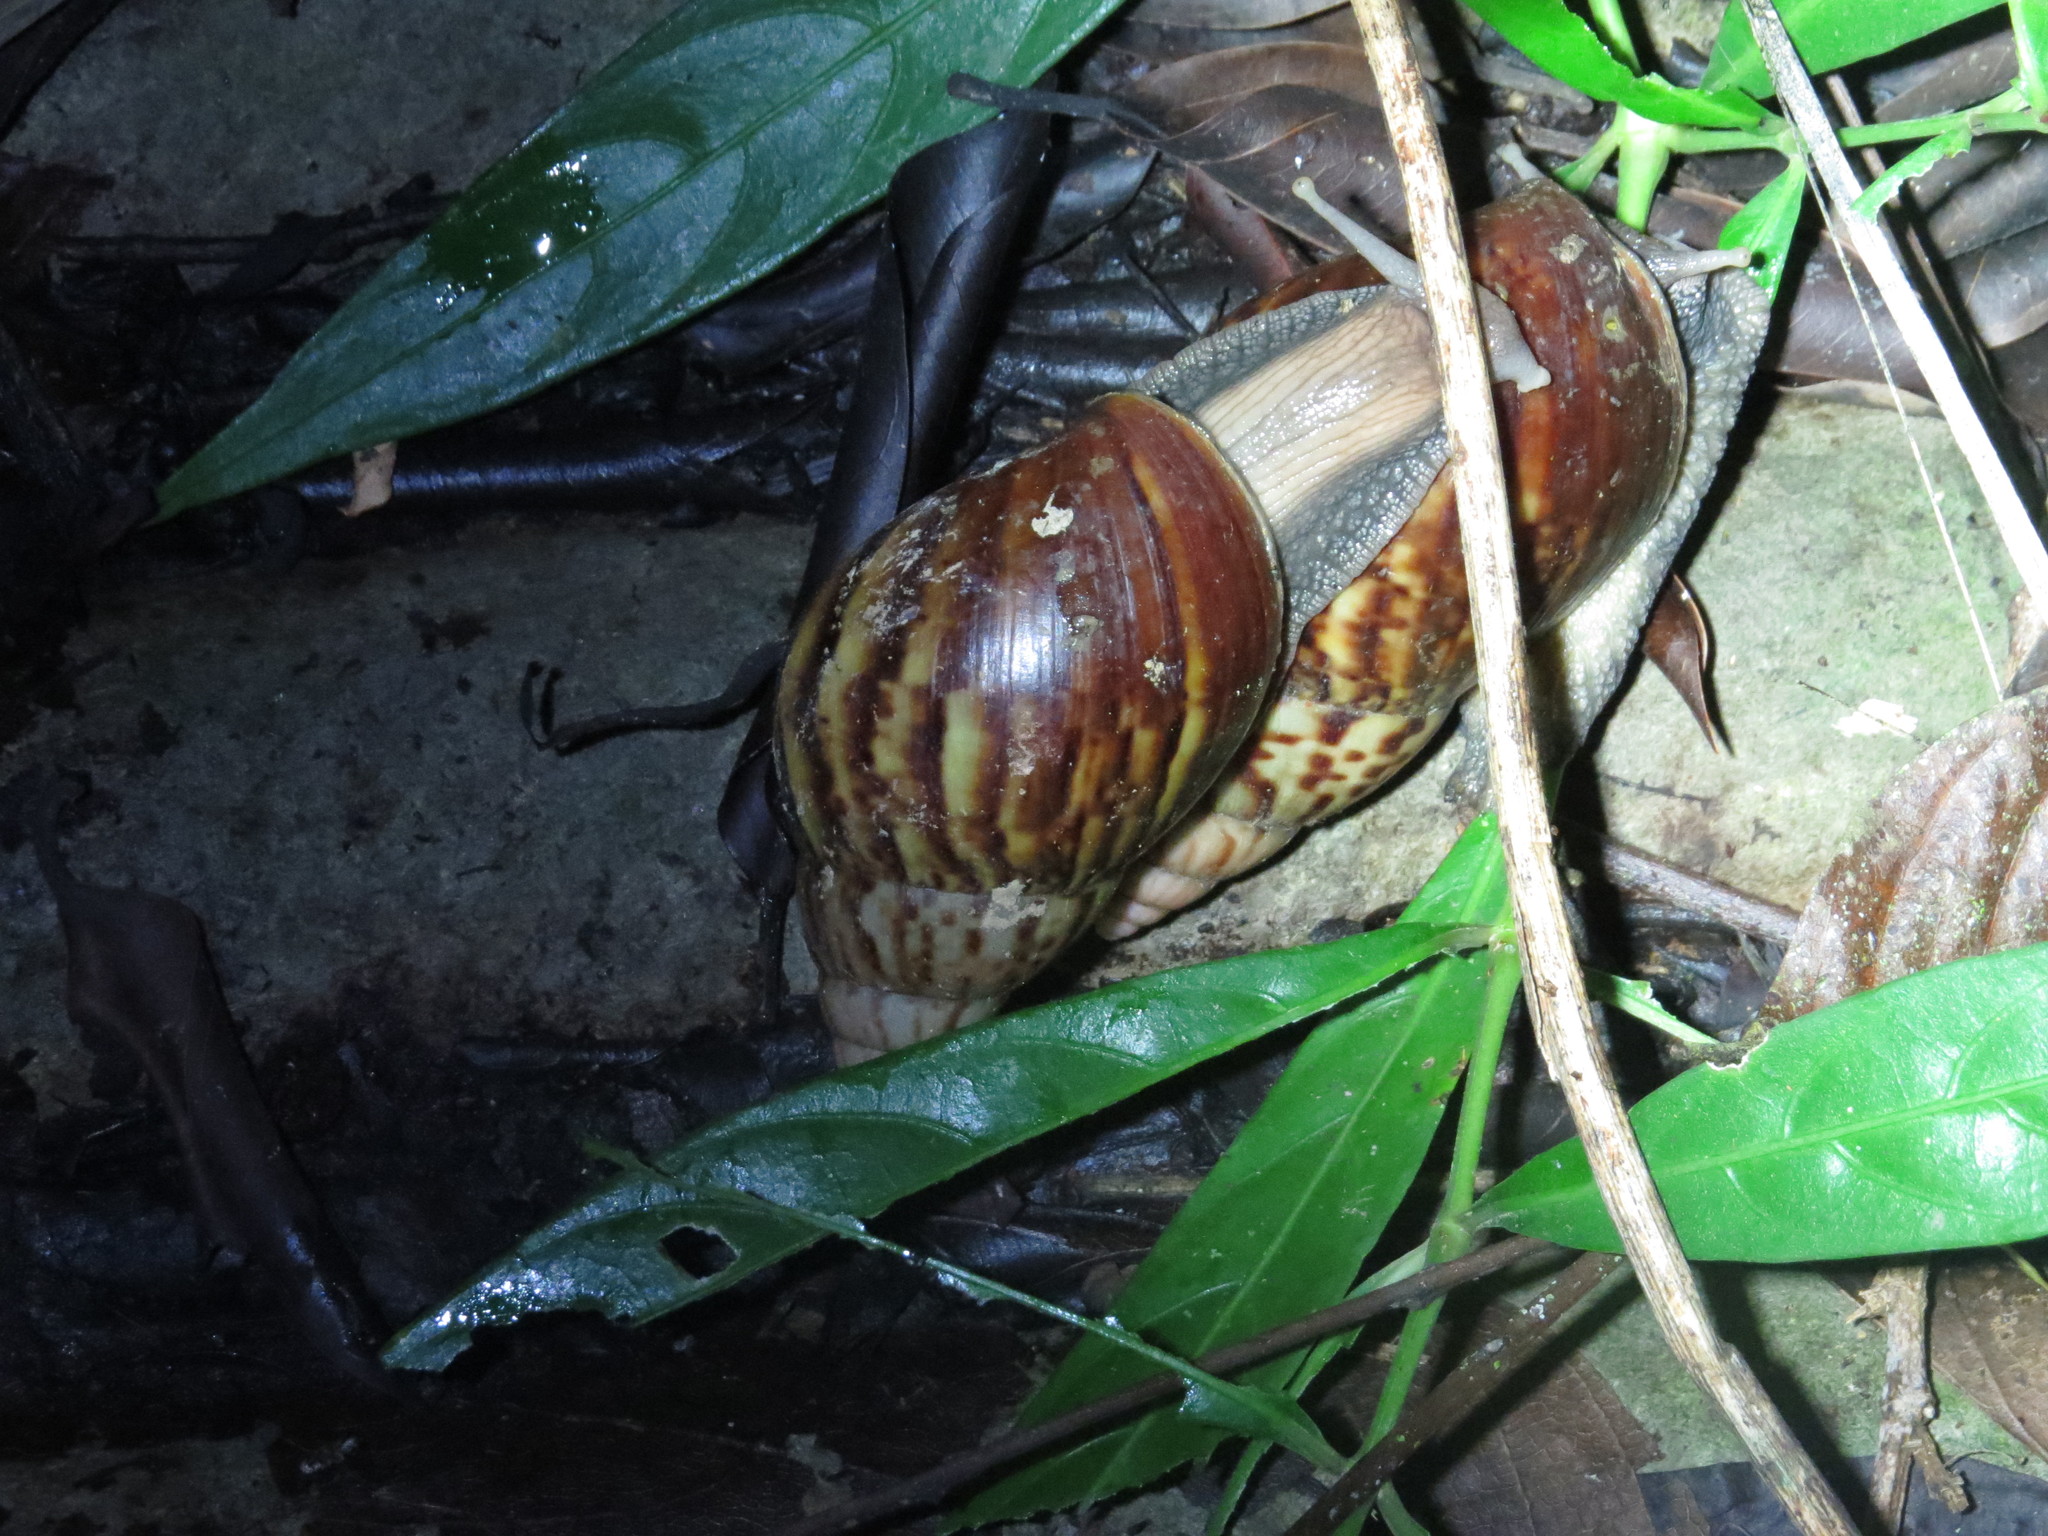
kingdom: Animalia
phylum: Mollusca
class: Gastropoda
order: Stylommatophora
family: Achatinidae
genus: Lissachatina
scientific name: Lissachatina fulica
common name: Giant african snail
